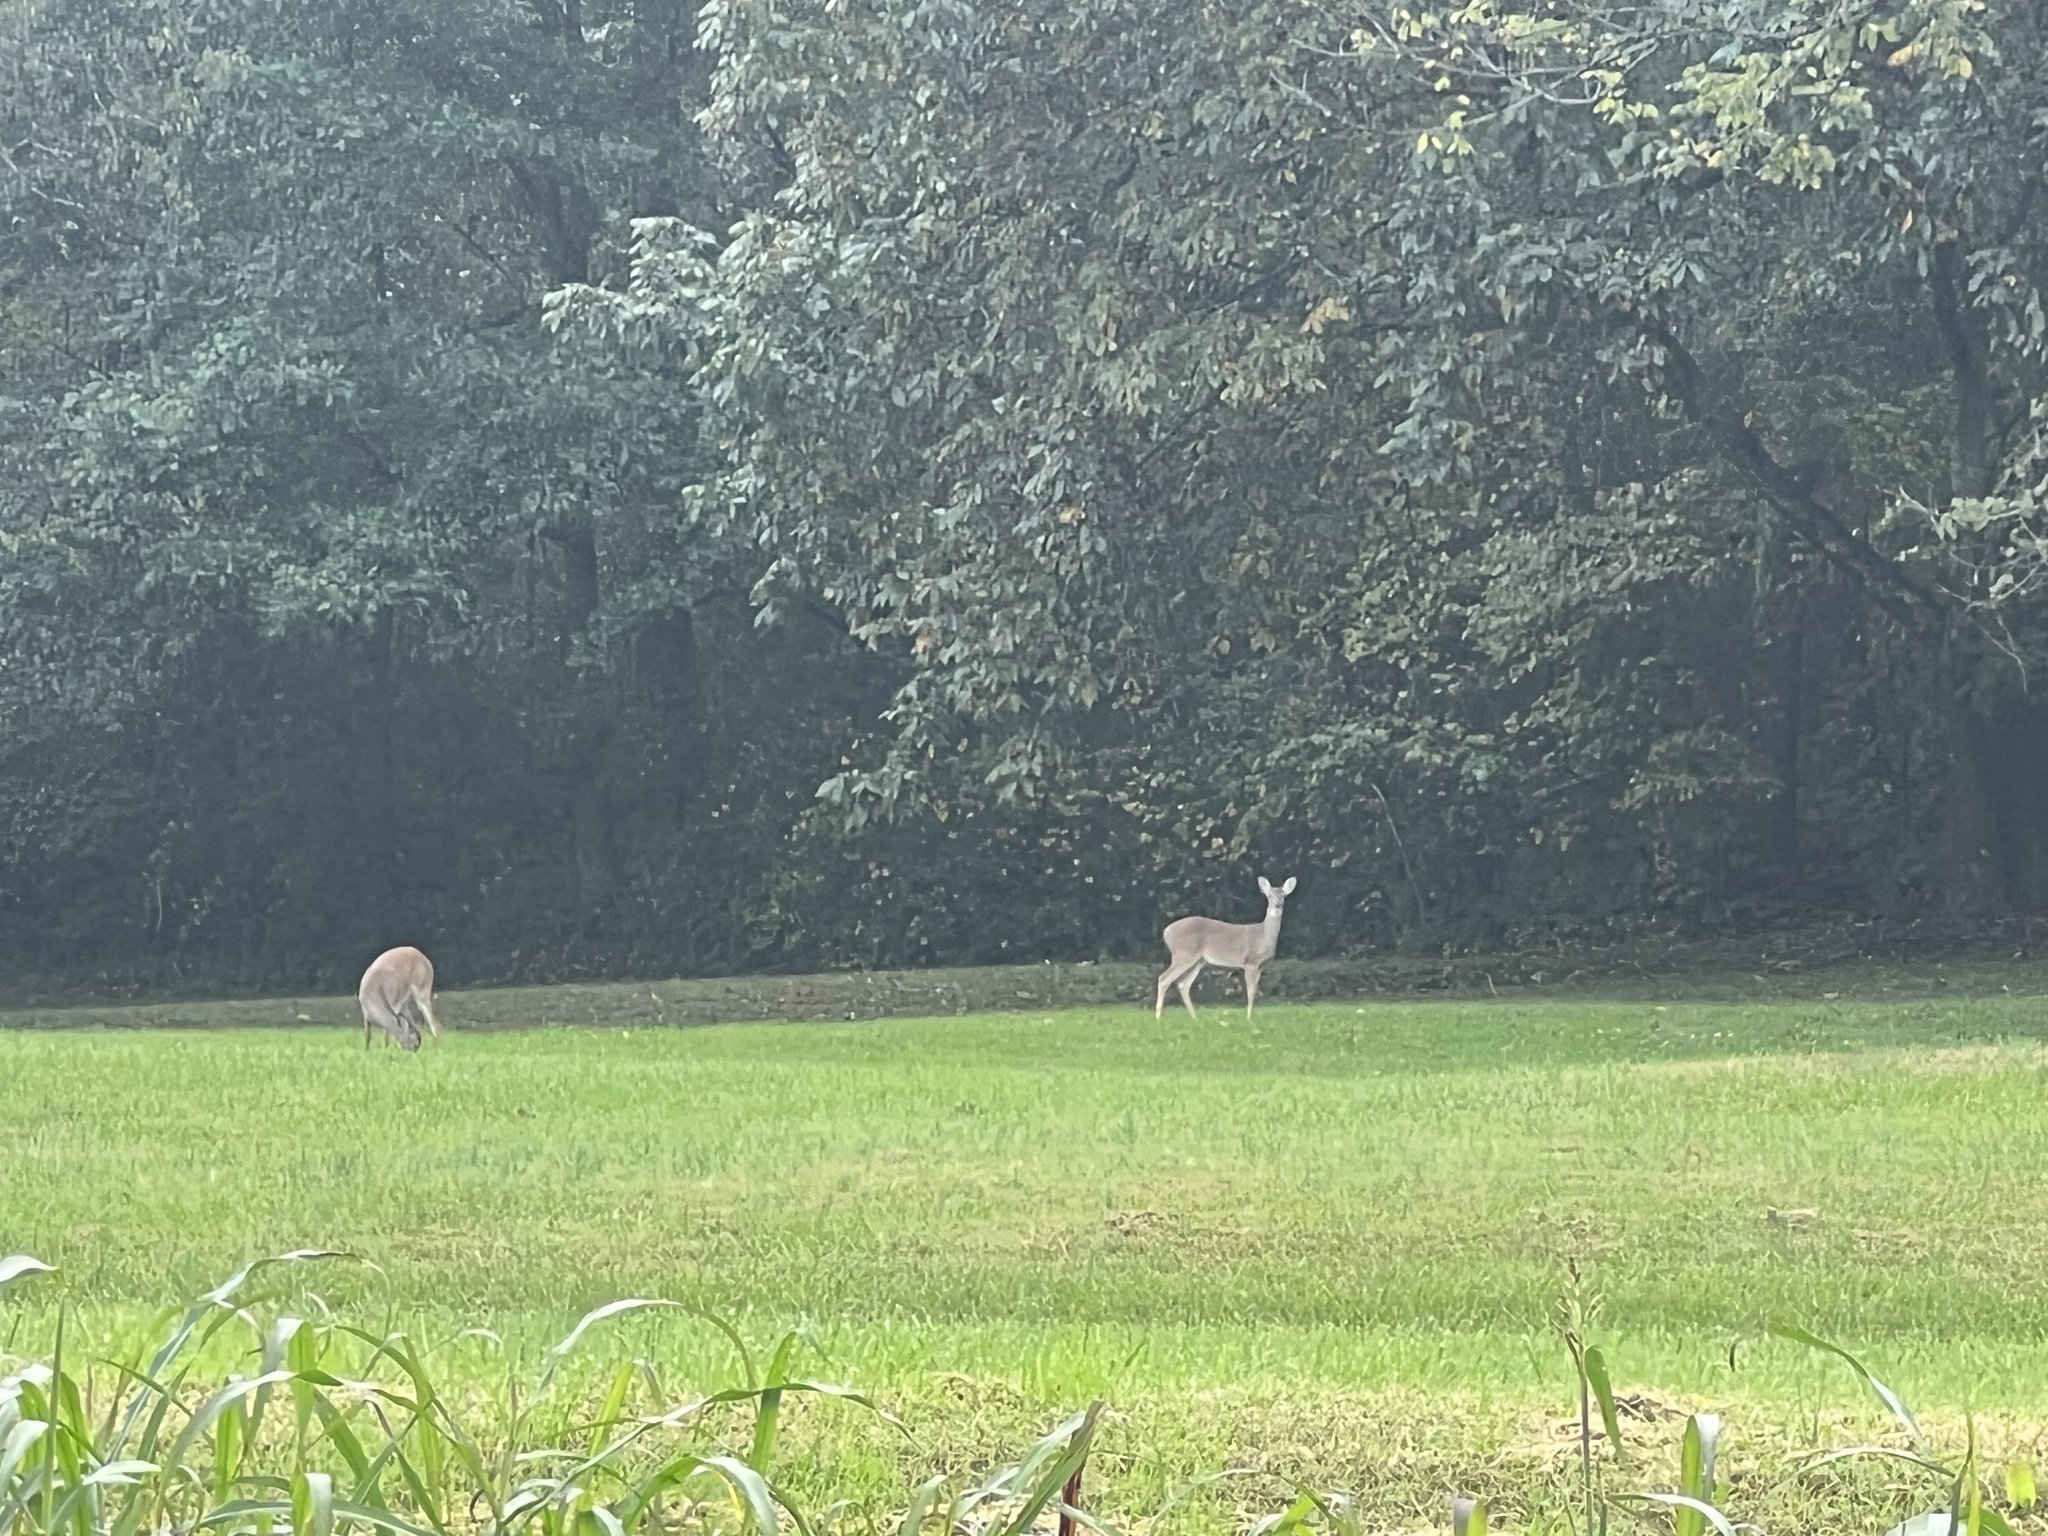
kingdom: Animalia
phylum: Chordata
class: Mammalia
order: Artiodactyla
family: Cervidae
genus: Odocoileus
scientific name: Odocoileus virginianus
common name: White-tailed deer
